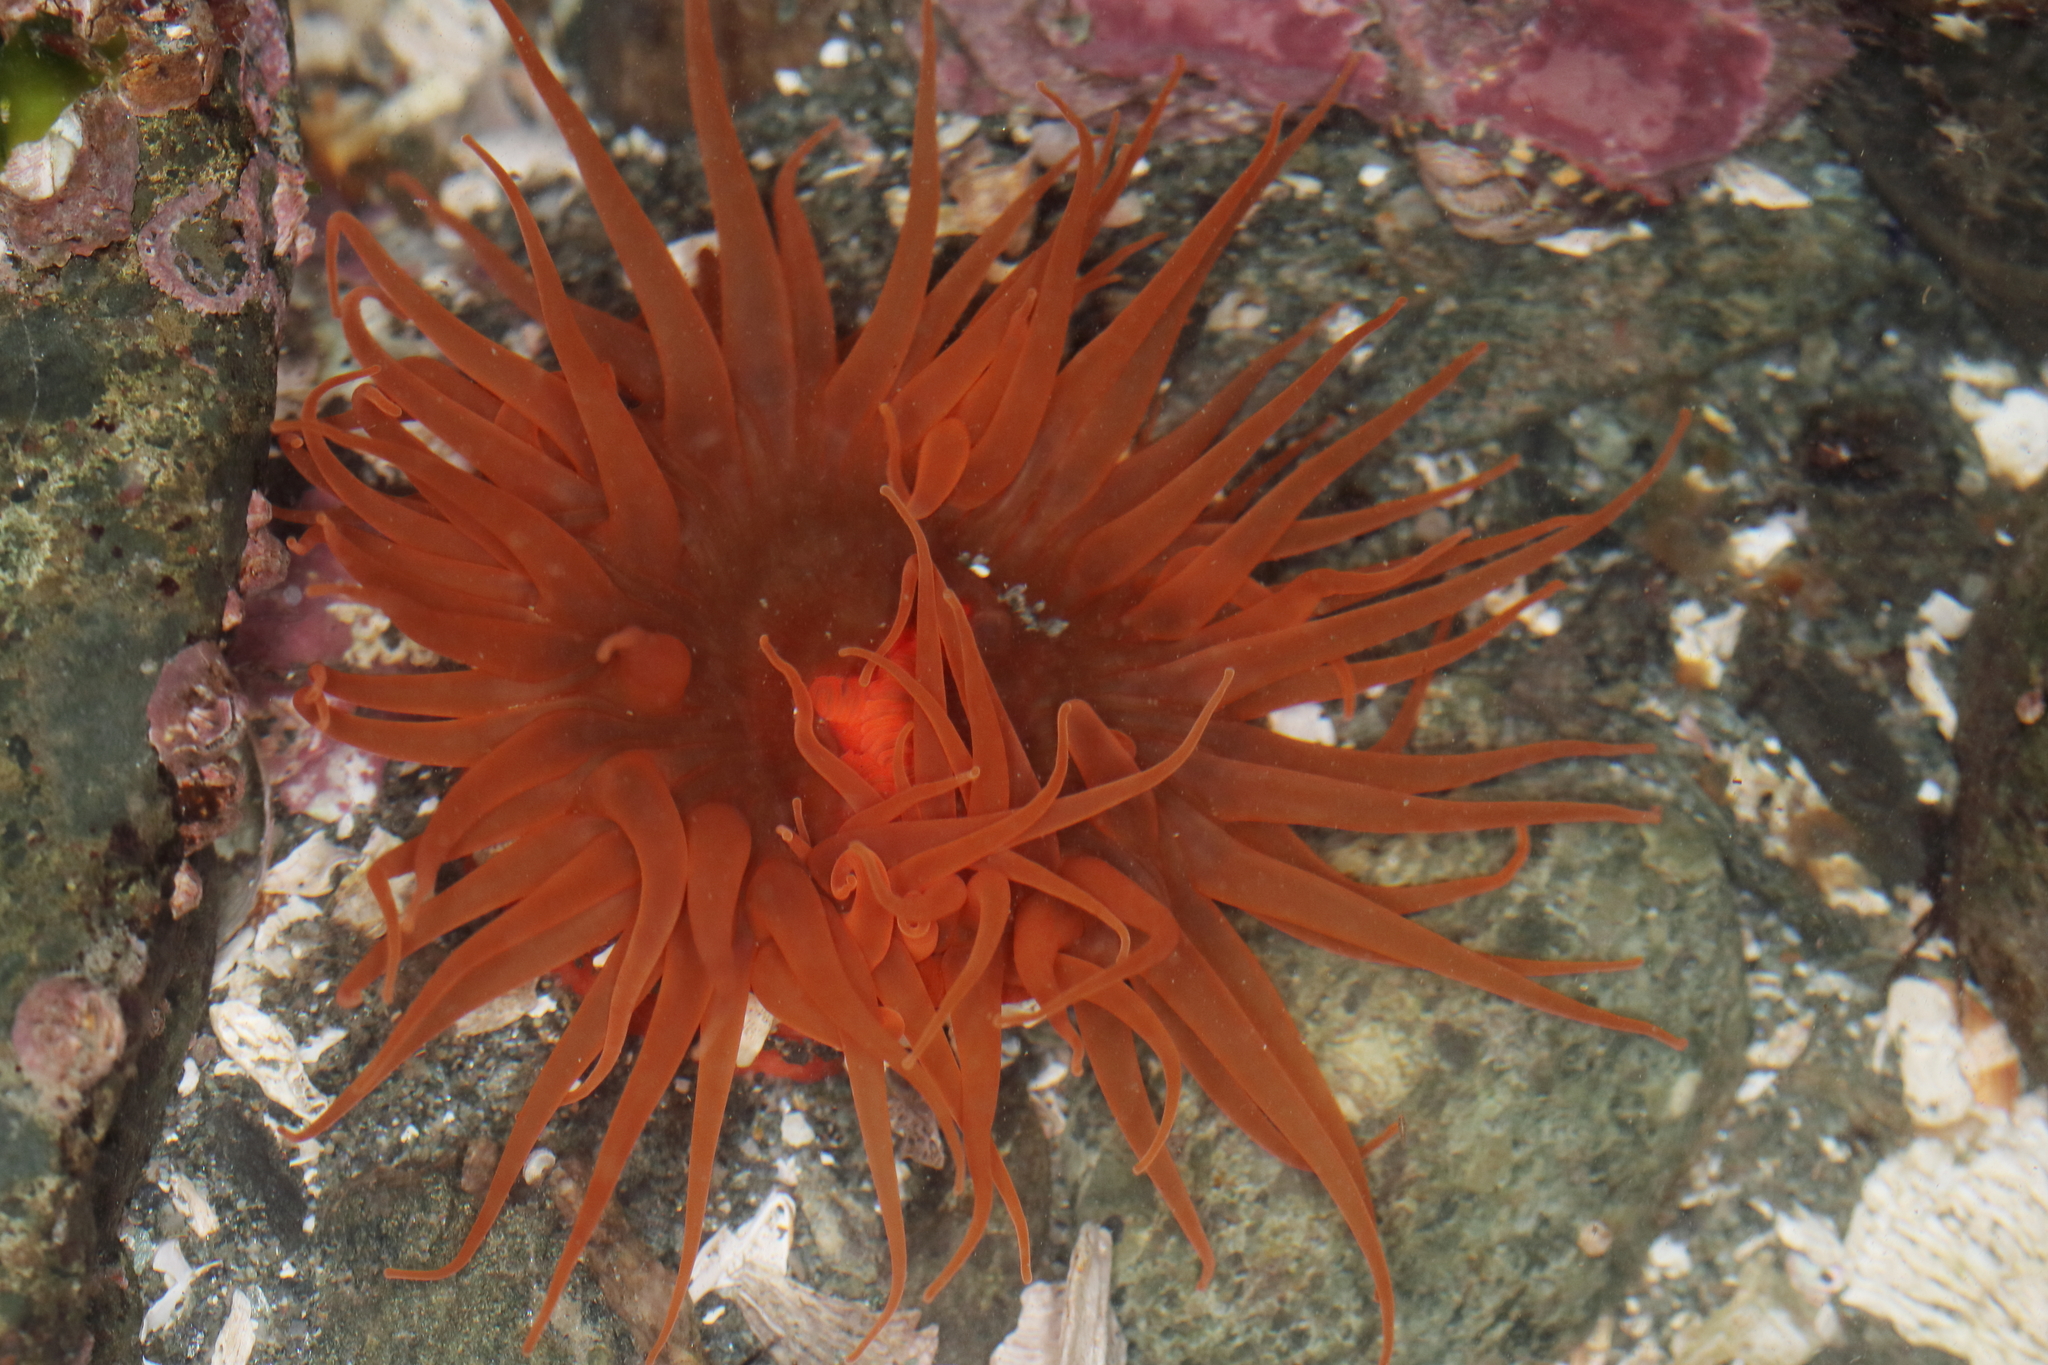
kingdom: Animalia
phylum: Cnidaria
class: Anthozoa
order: Actiniaria
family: Actiniidae
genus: Aulactinia
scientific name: Aulactinia vancouverensis
